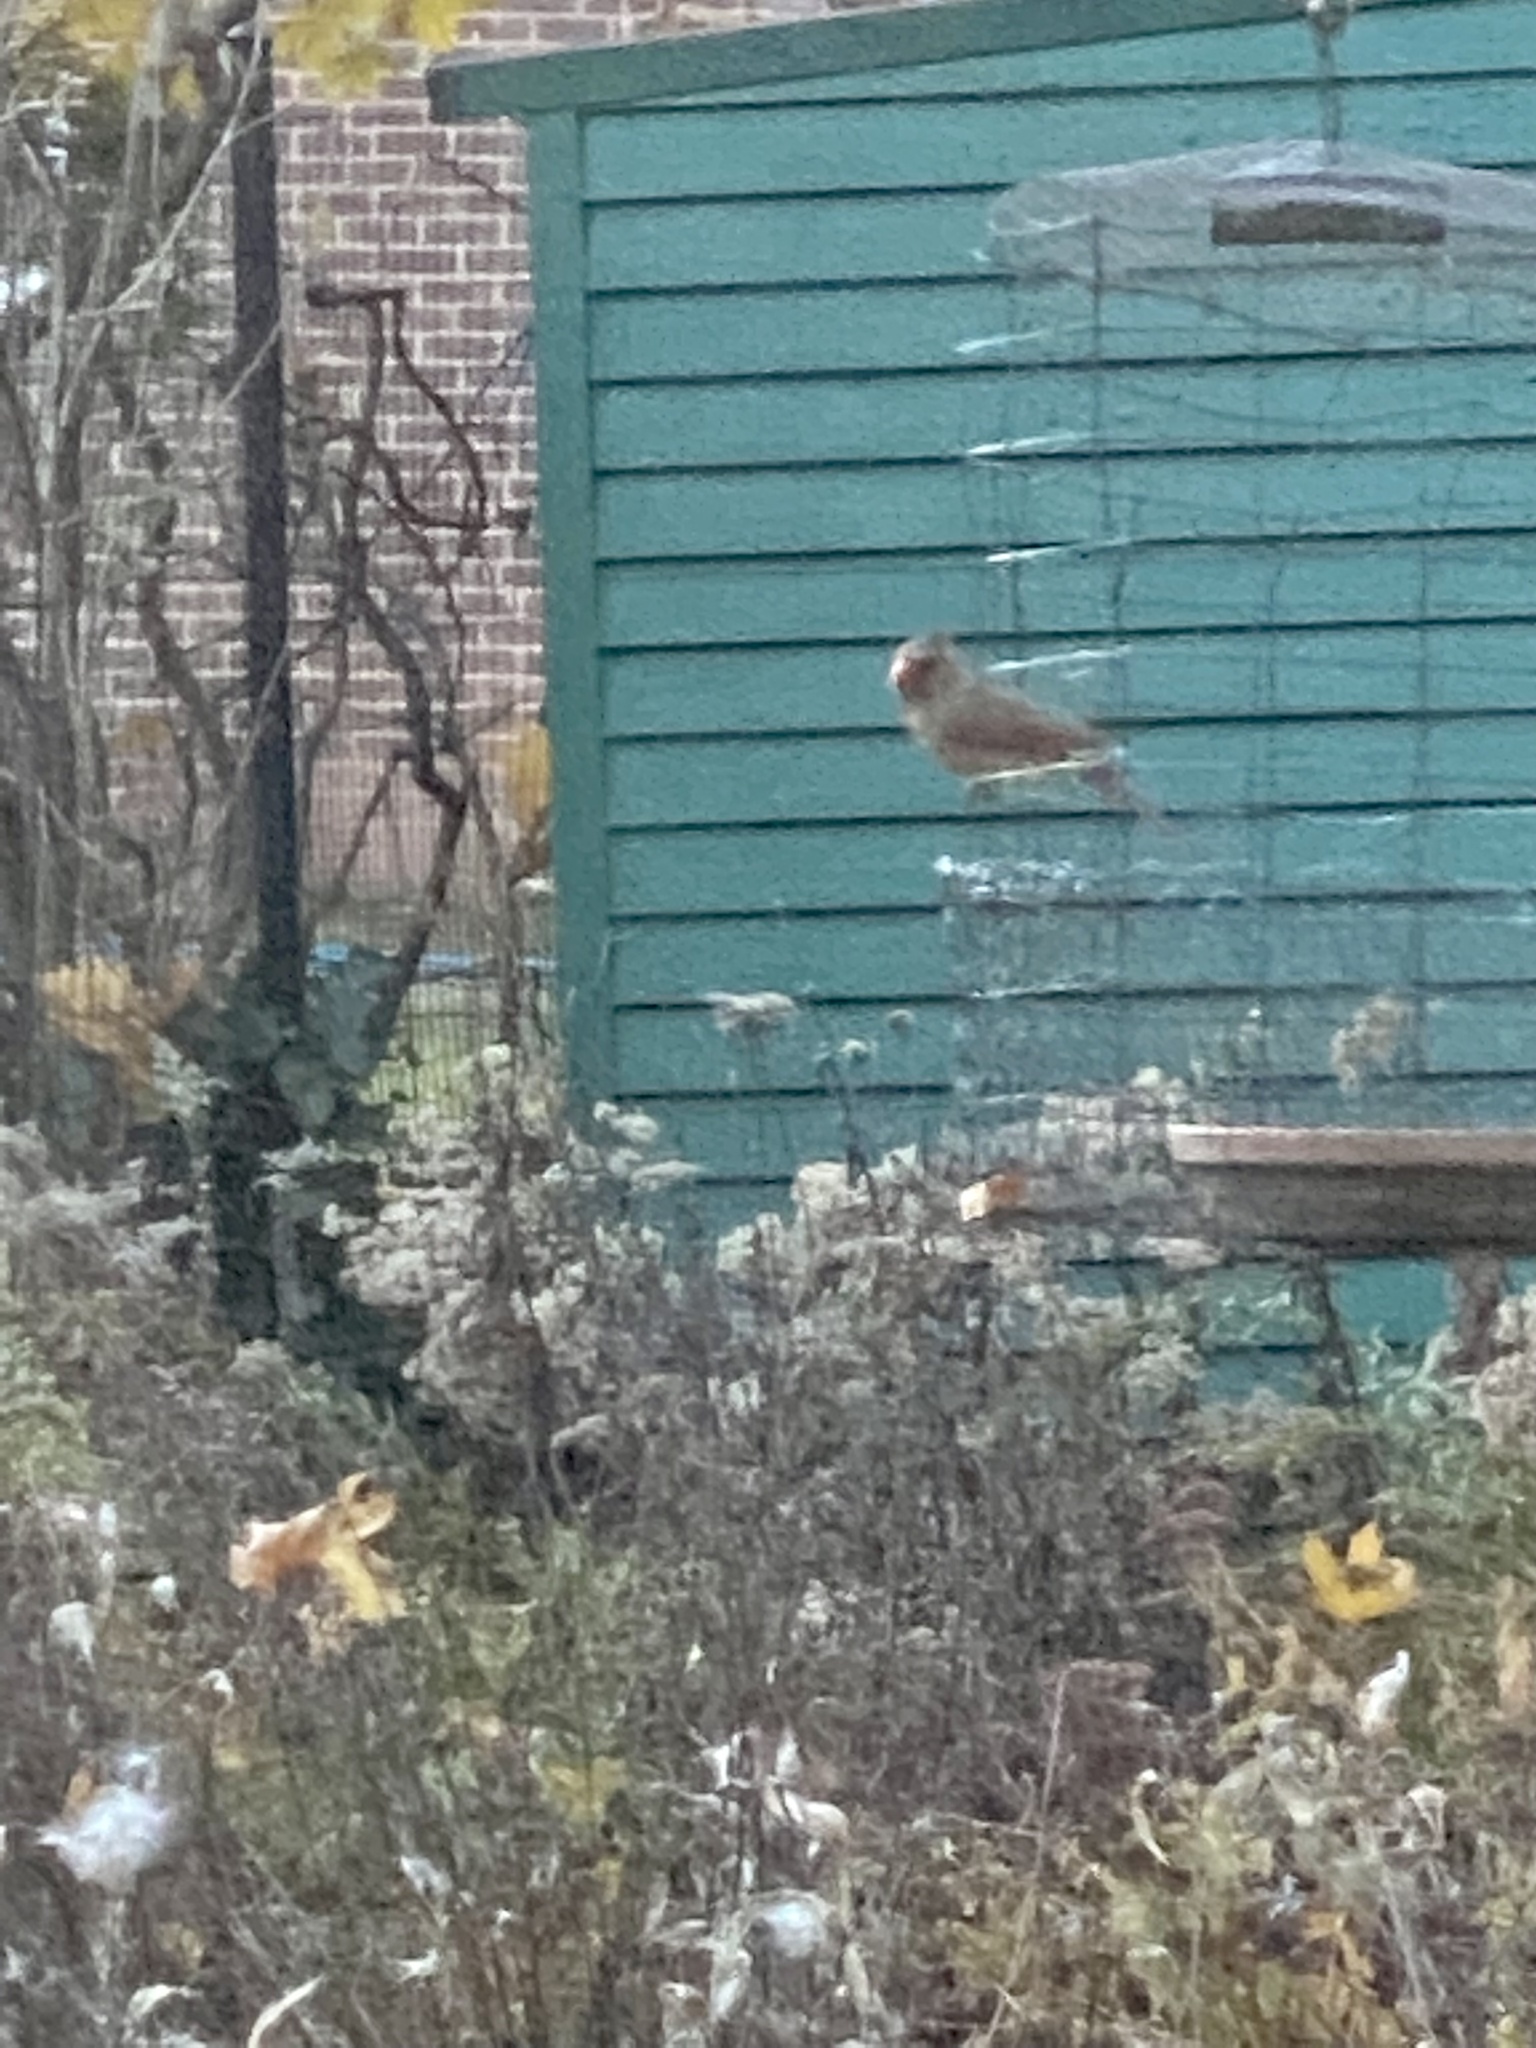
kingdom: Animalia
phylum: Chordata
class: Aves
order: Passeriformes
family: Cardinalidae
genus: Cardinalis
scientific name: Cardinalis cardinalis
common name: Northern cardinal
